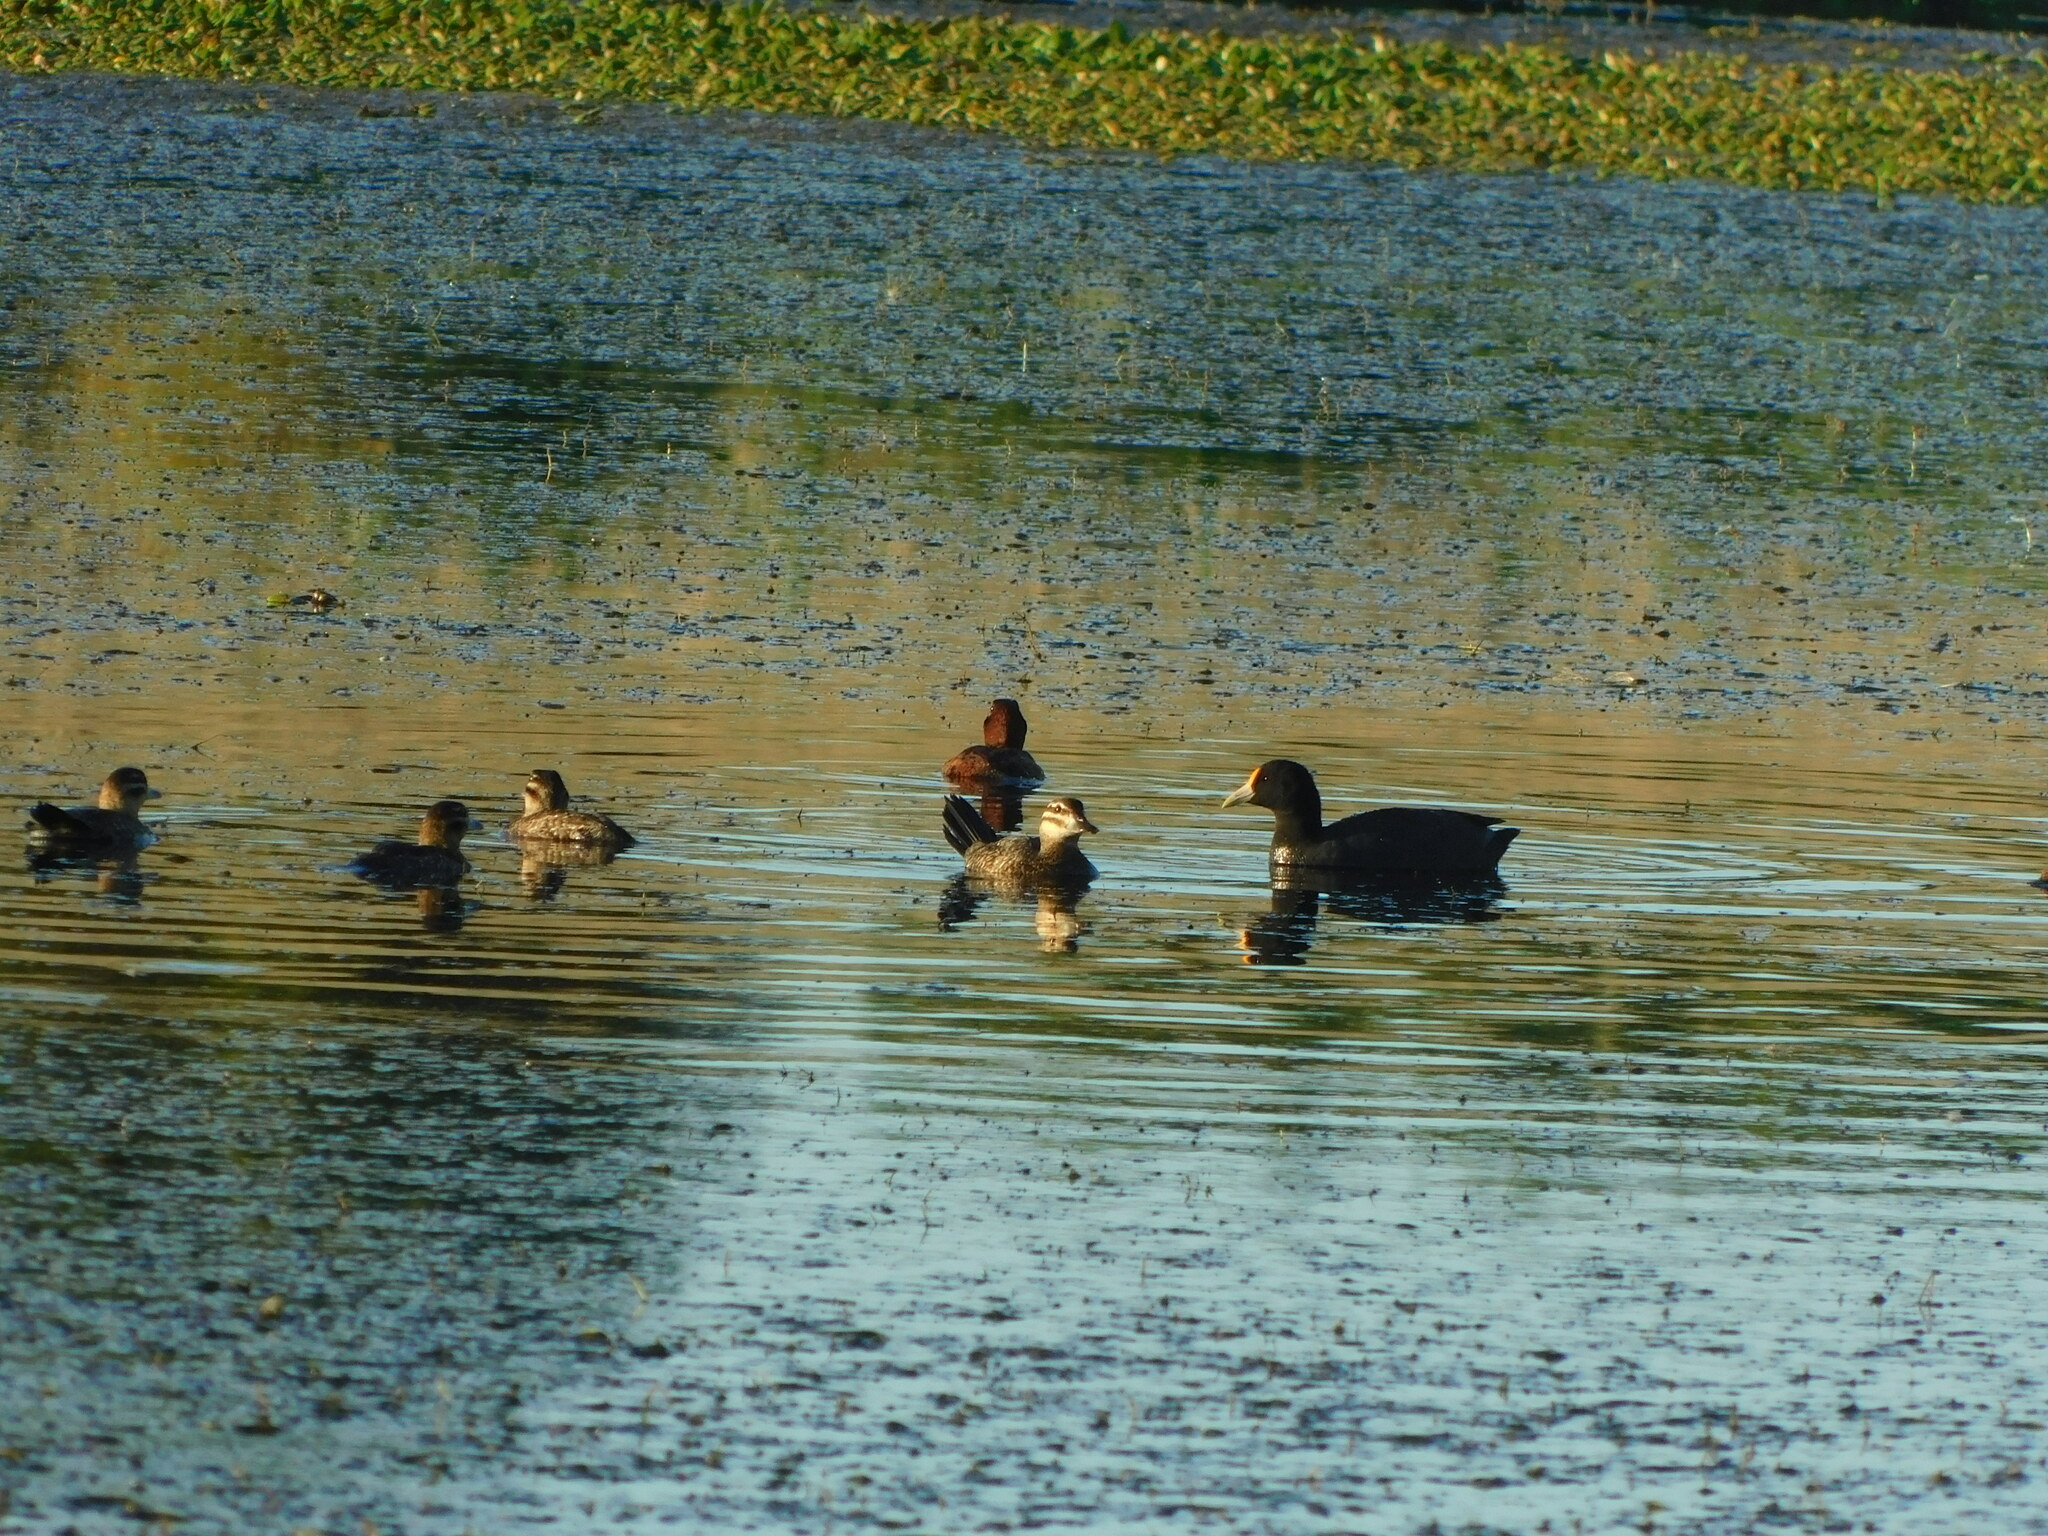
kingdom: Animalia
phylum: Chordata
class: Aves
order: Gruiformes
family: Rallidae
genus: Fulica
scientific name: Fulica leucoptera
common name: White-winged coot
